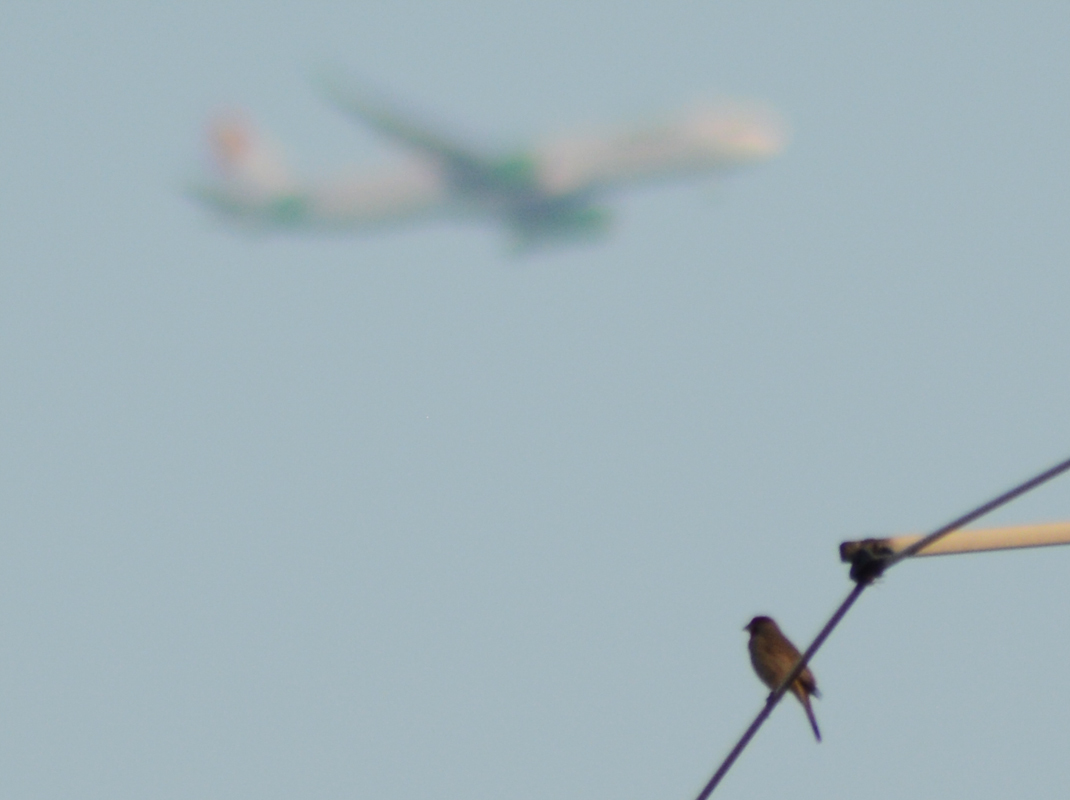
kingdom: Animalia
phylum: Chordata
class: Aves
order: Passeriformes
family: Fringillidae
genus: Haemorhous
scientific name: Haemorhous mexicanus
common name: House finch
